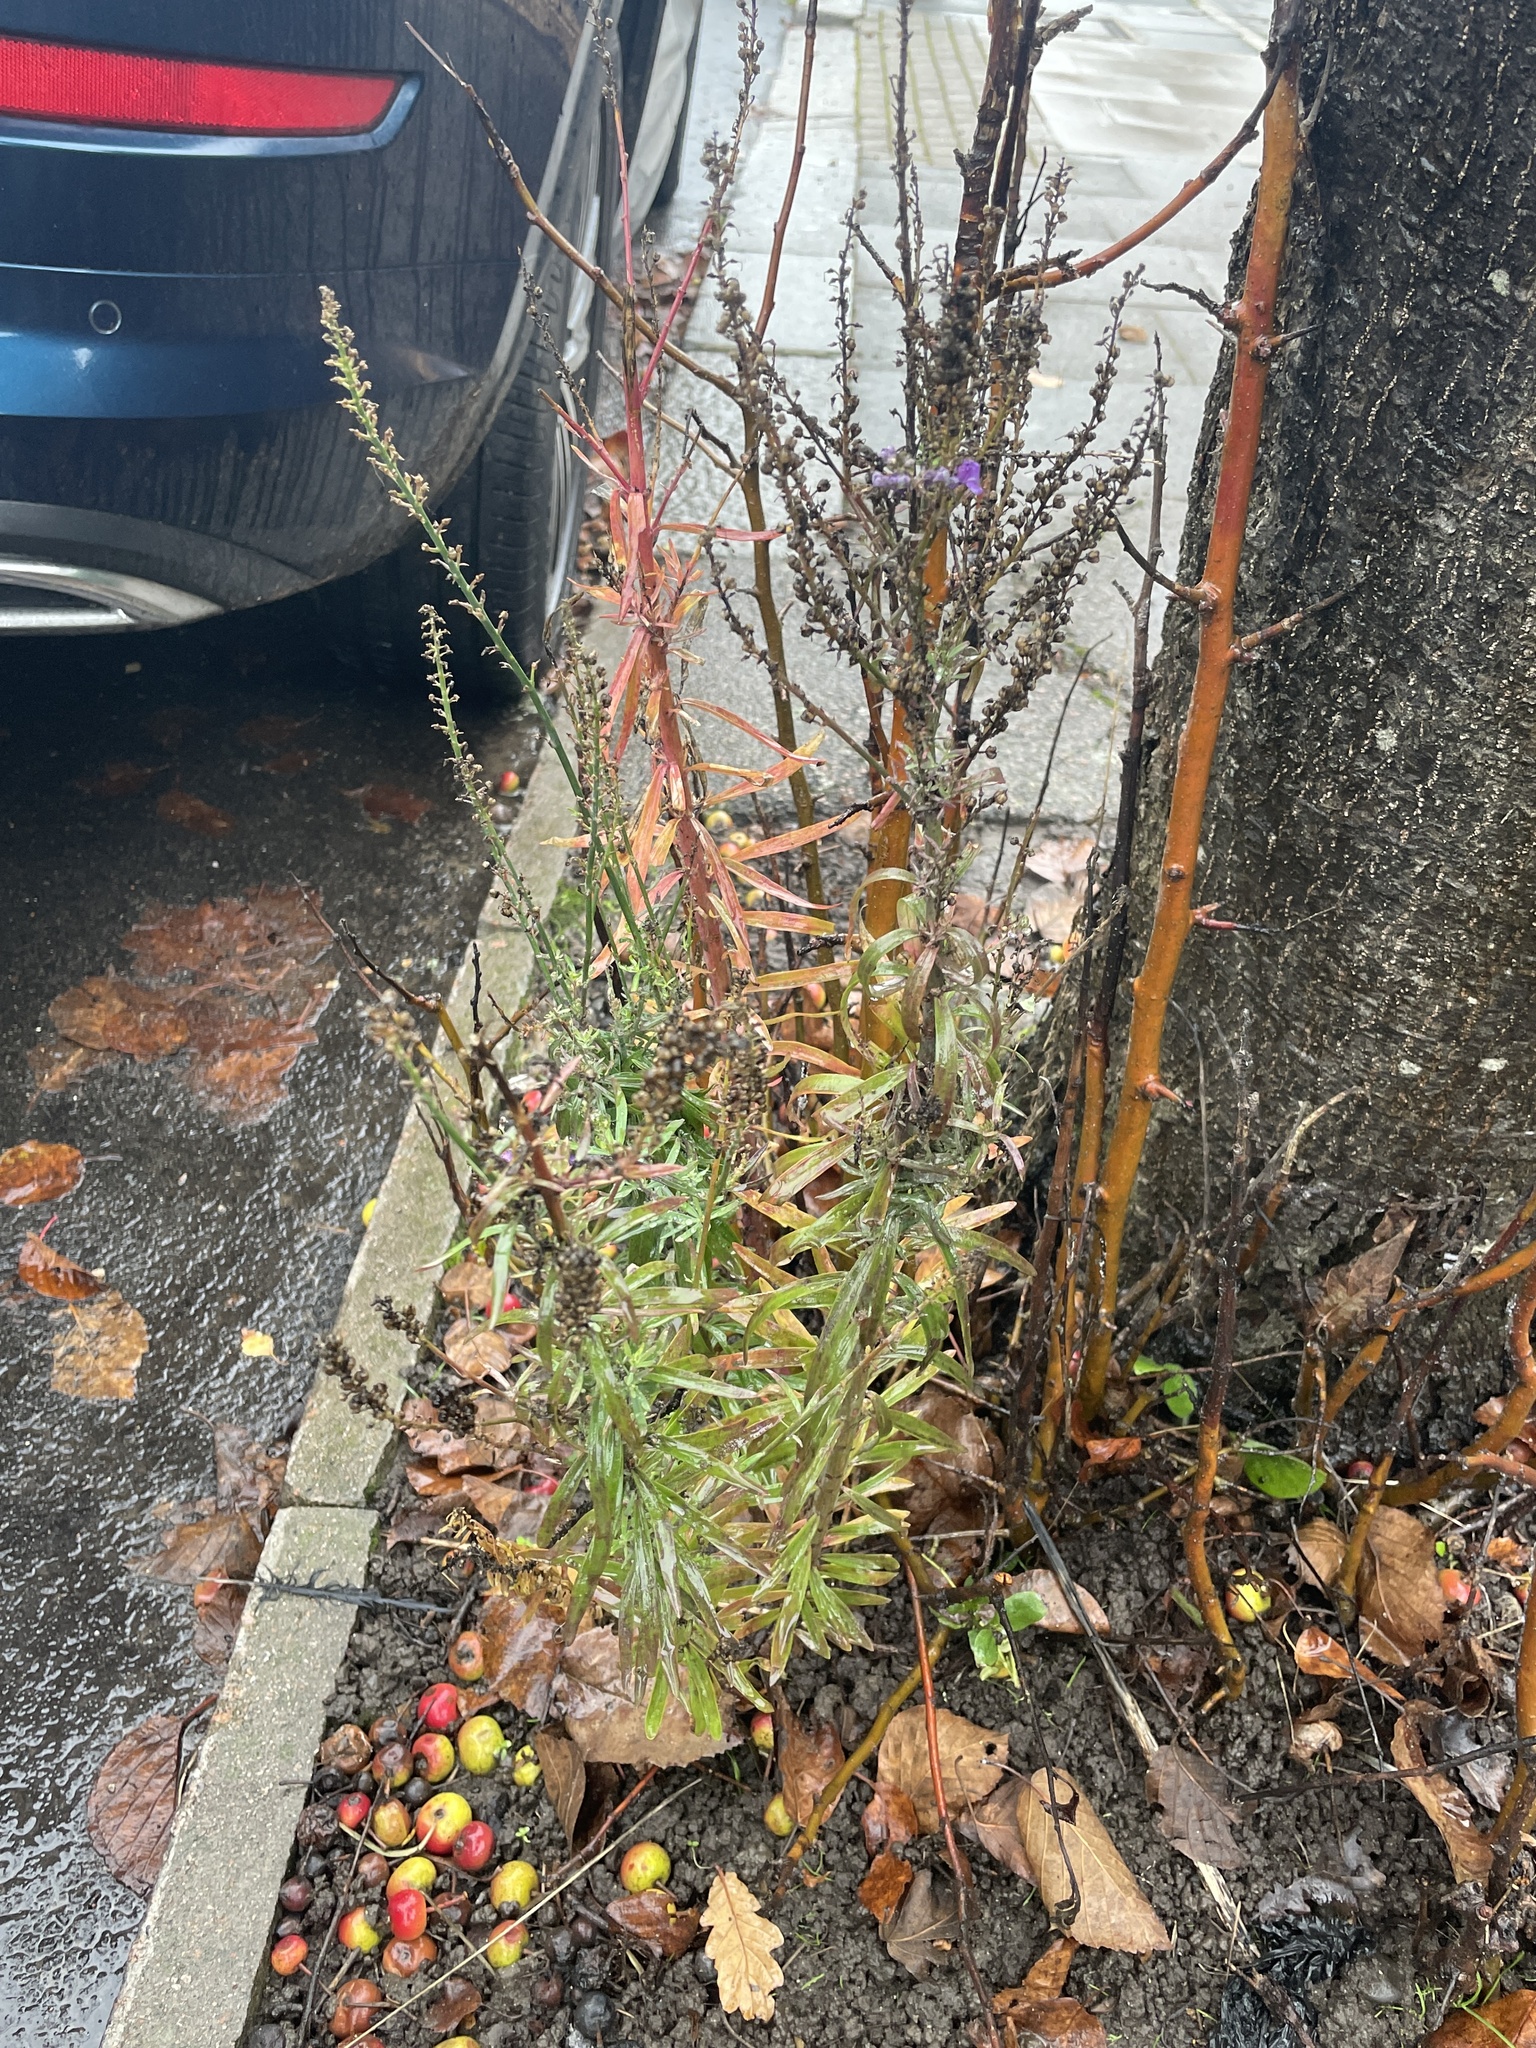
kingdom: Plantae
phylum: Tracheophyta
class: Magnoliopsida
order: Lamiales
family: Plantaginaceae
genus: Linaria
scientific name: Linaria purpurea
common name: Purple toadflax
